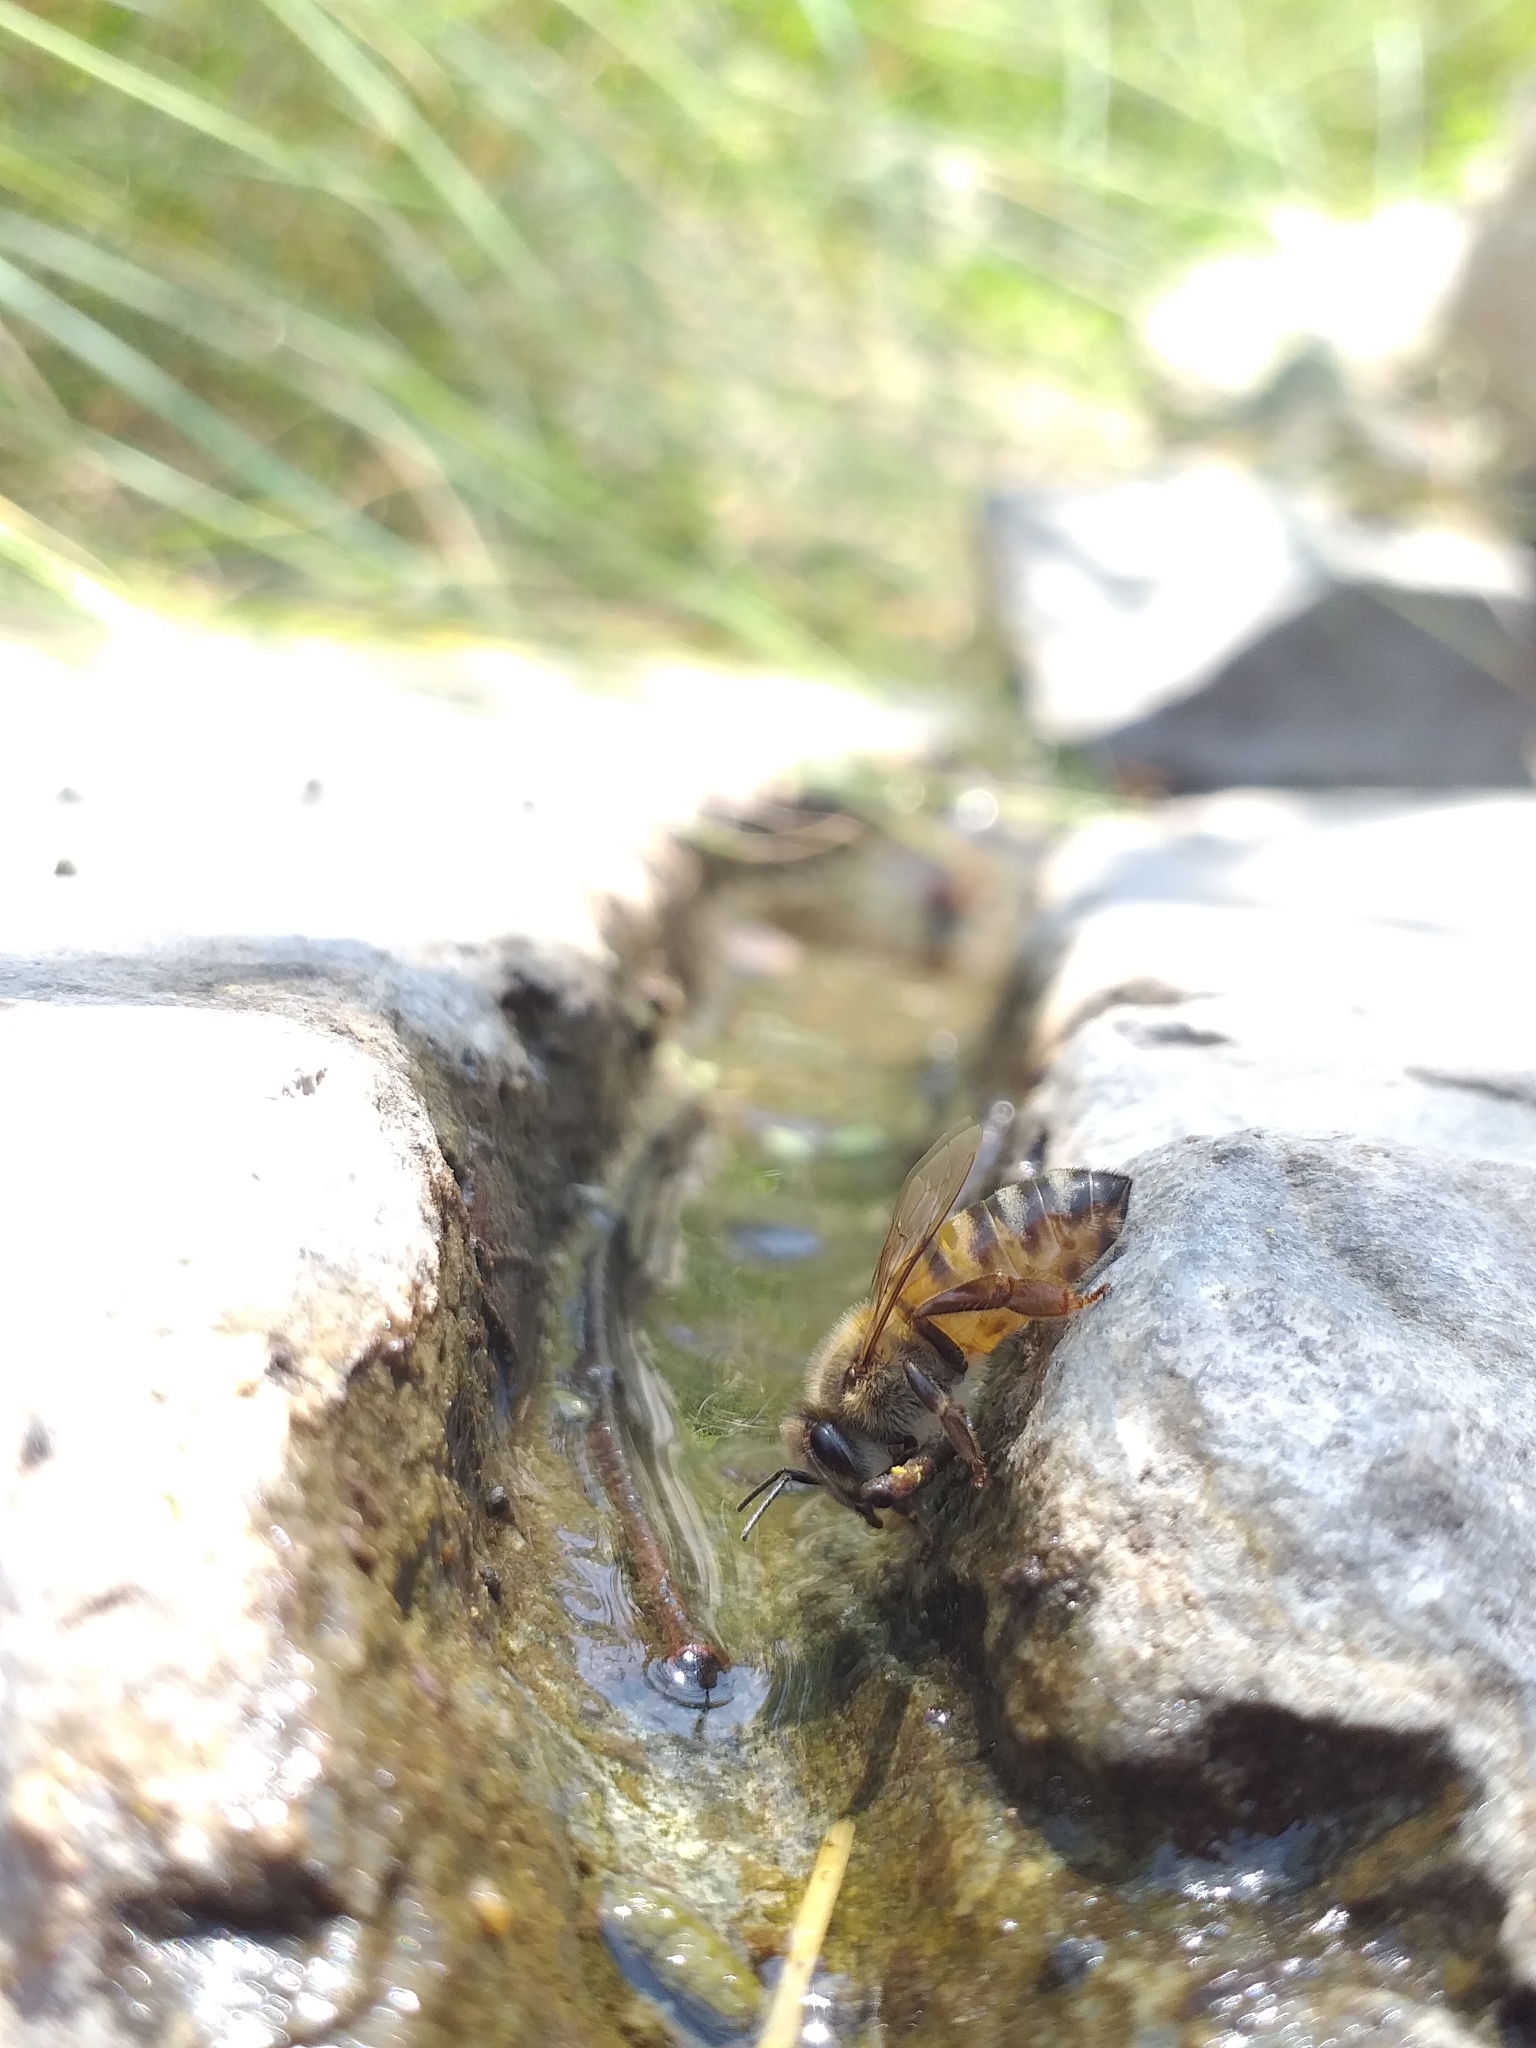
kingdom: Animalia
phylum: Arthropoda
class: Insecta
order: Hymenoptera
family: Apidae
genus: Apis
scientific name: Apis mellifera
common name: Honey bee
